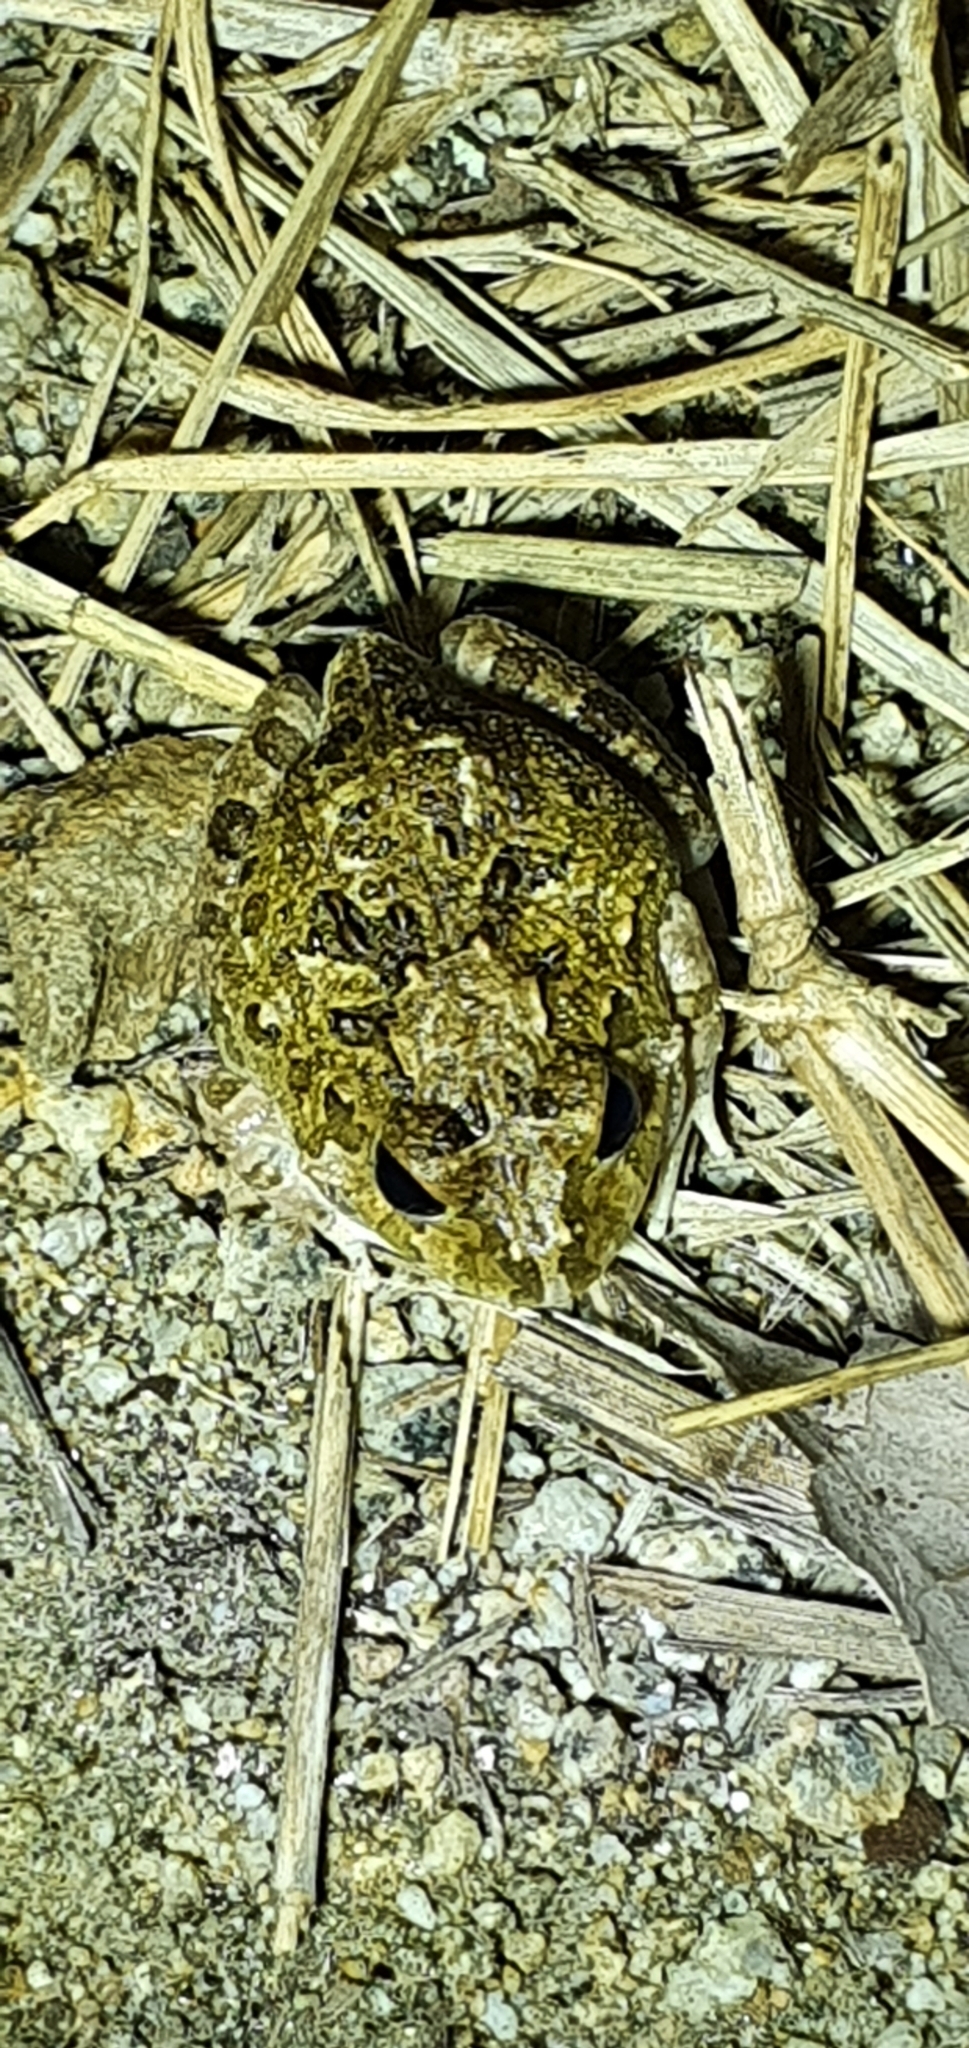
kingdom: Animalia
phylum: Chordata
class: Amphibia
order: Anura
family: Limnodynastidae
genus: Platyplectrum
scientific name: Platyplectrum ornatum
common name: Ornate burrowing frog
